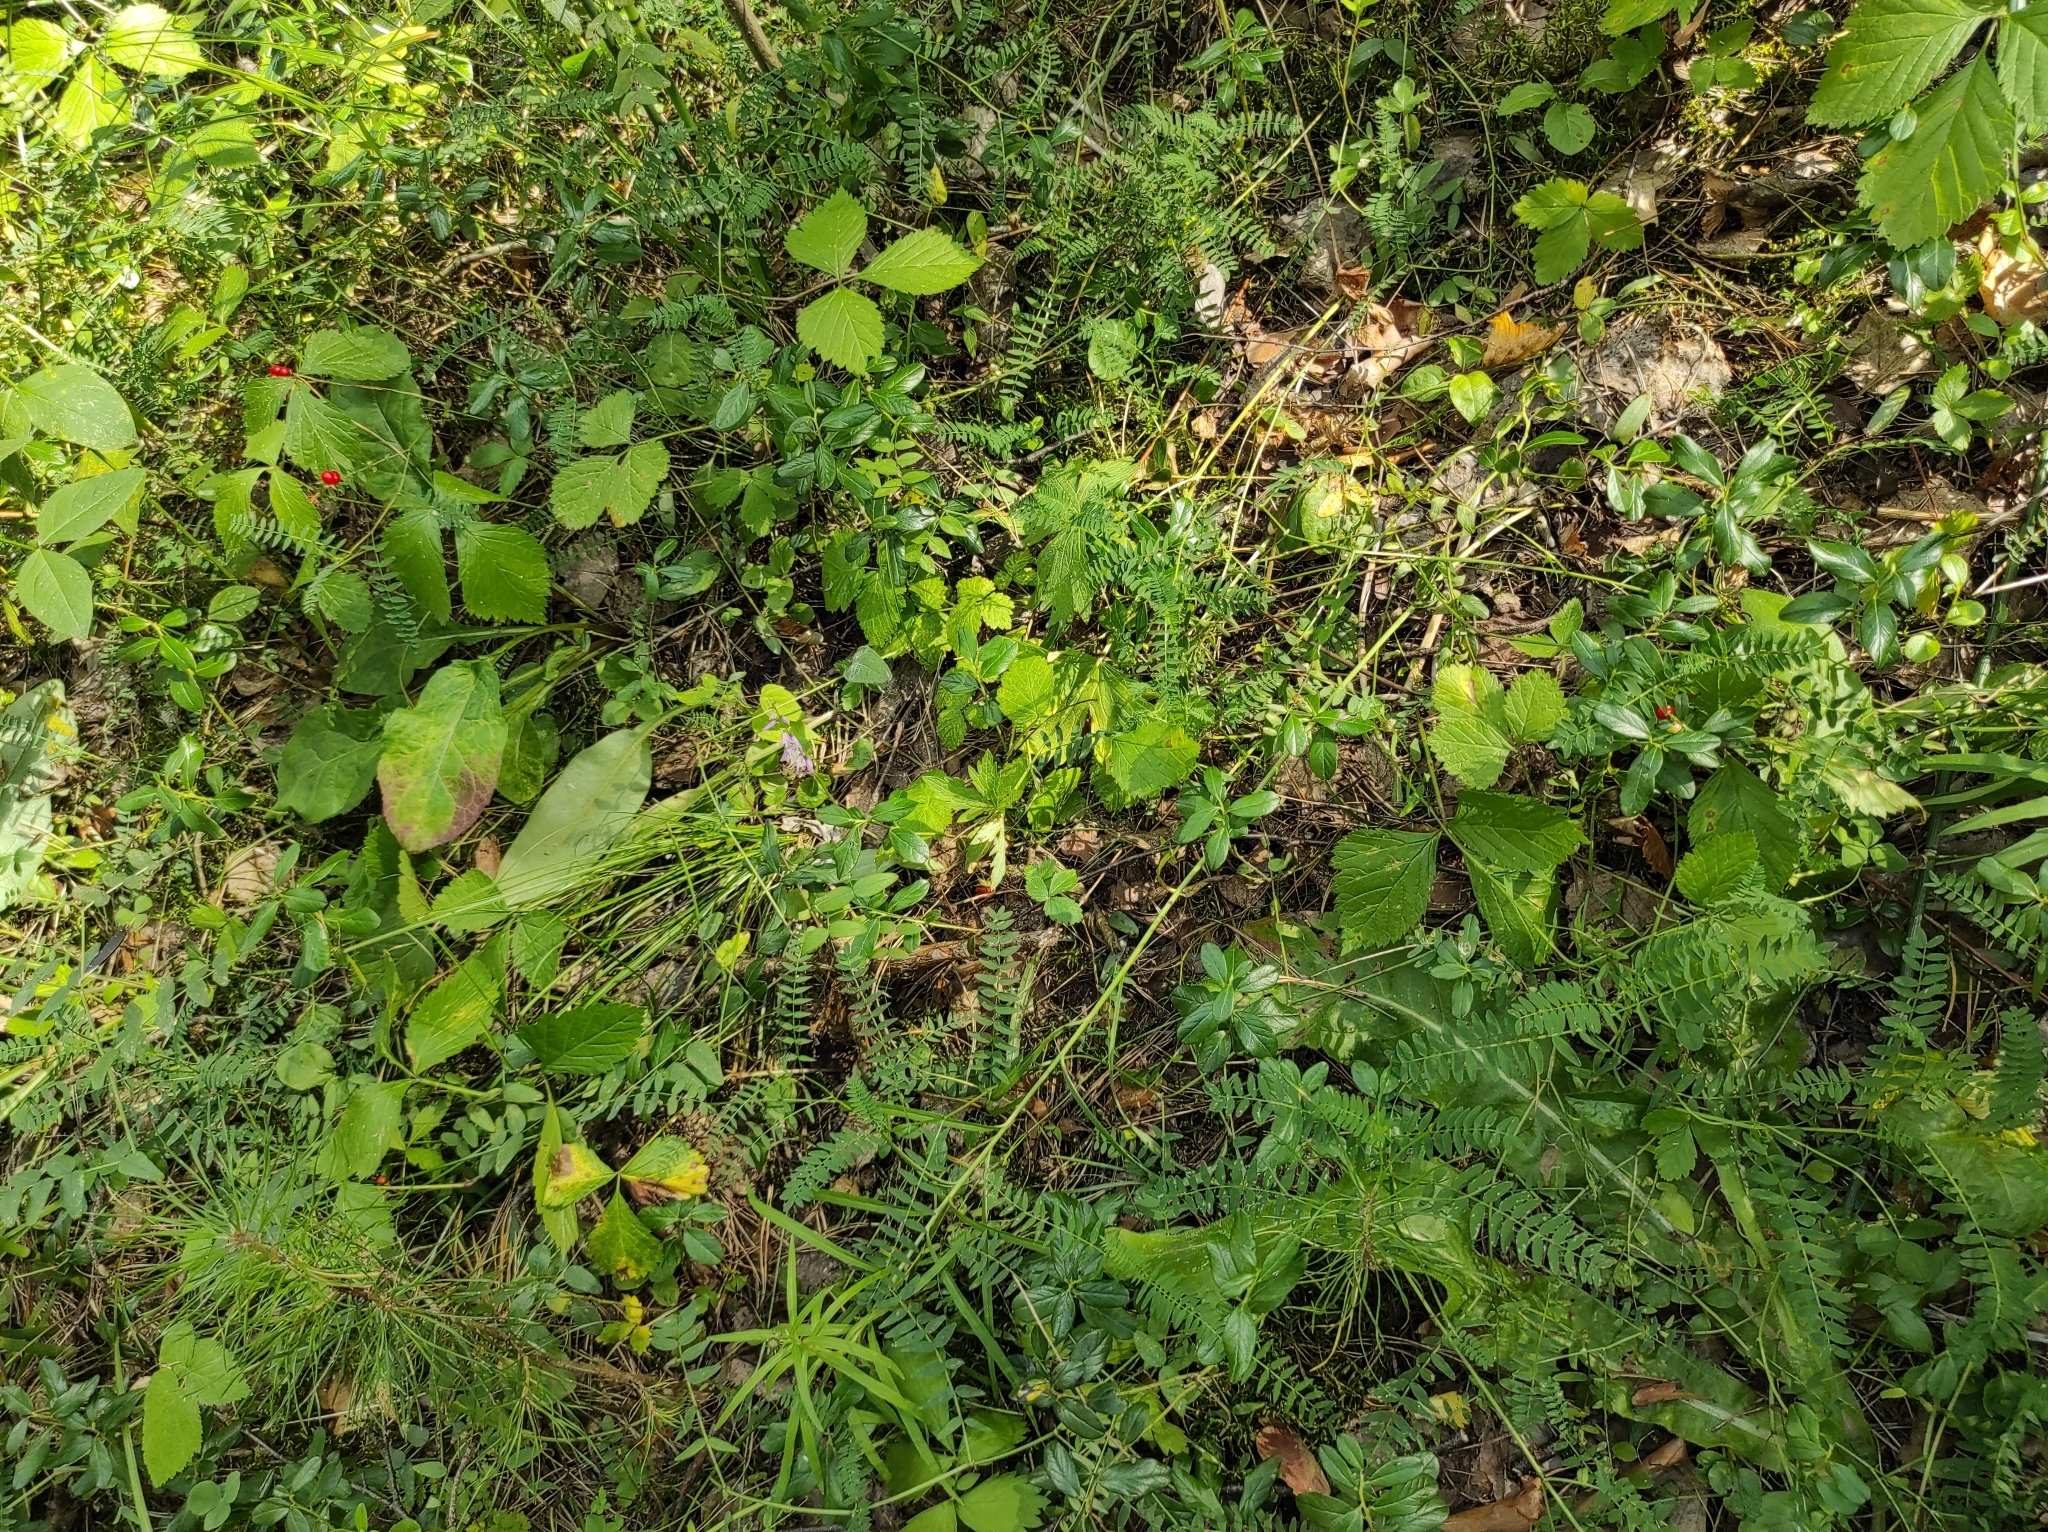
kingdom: Plantae
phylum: Tracheophyta
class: Liliopsida
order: Asparagales
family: Orchidaceae
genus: Hemipilia
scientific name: Hemipilia cucullata
